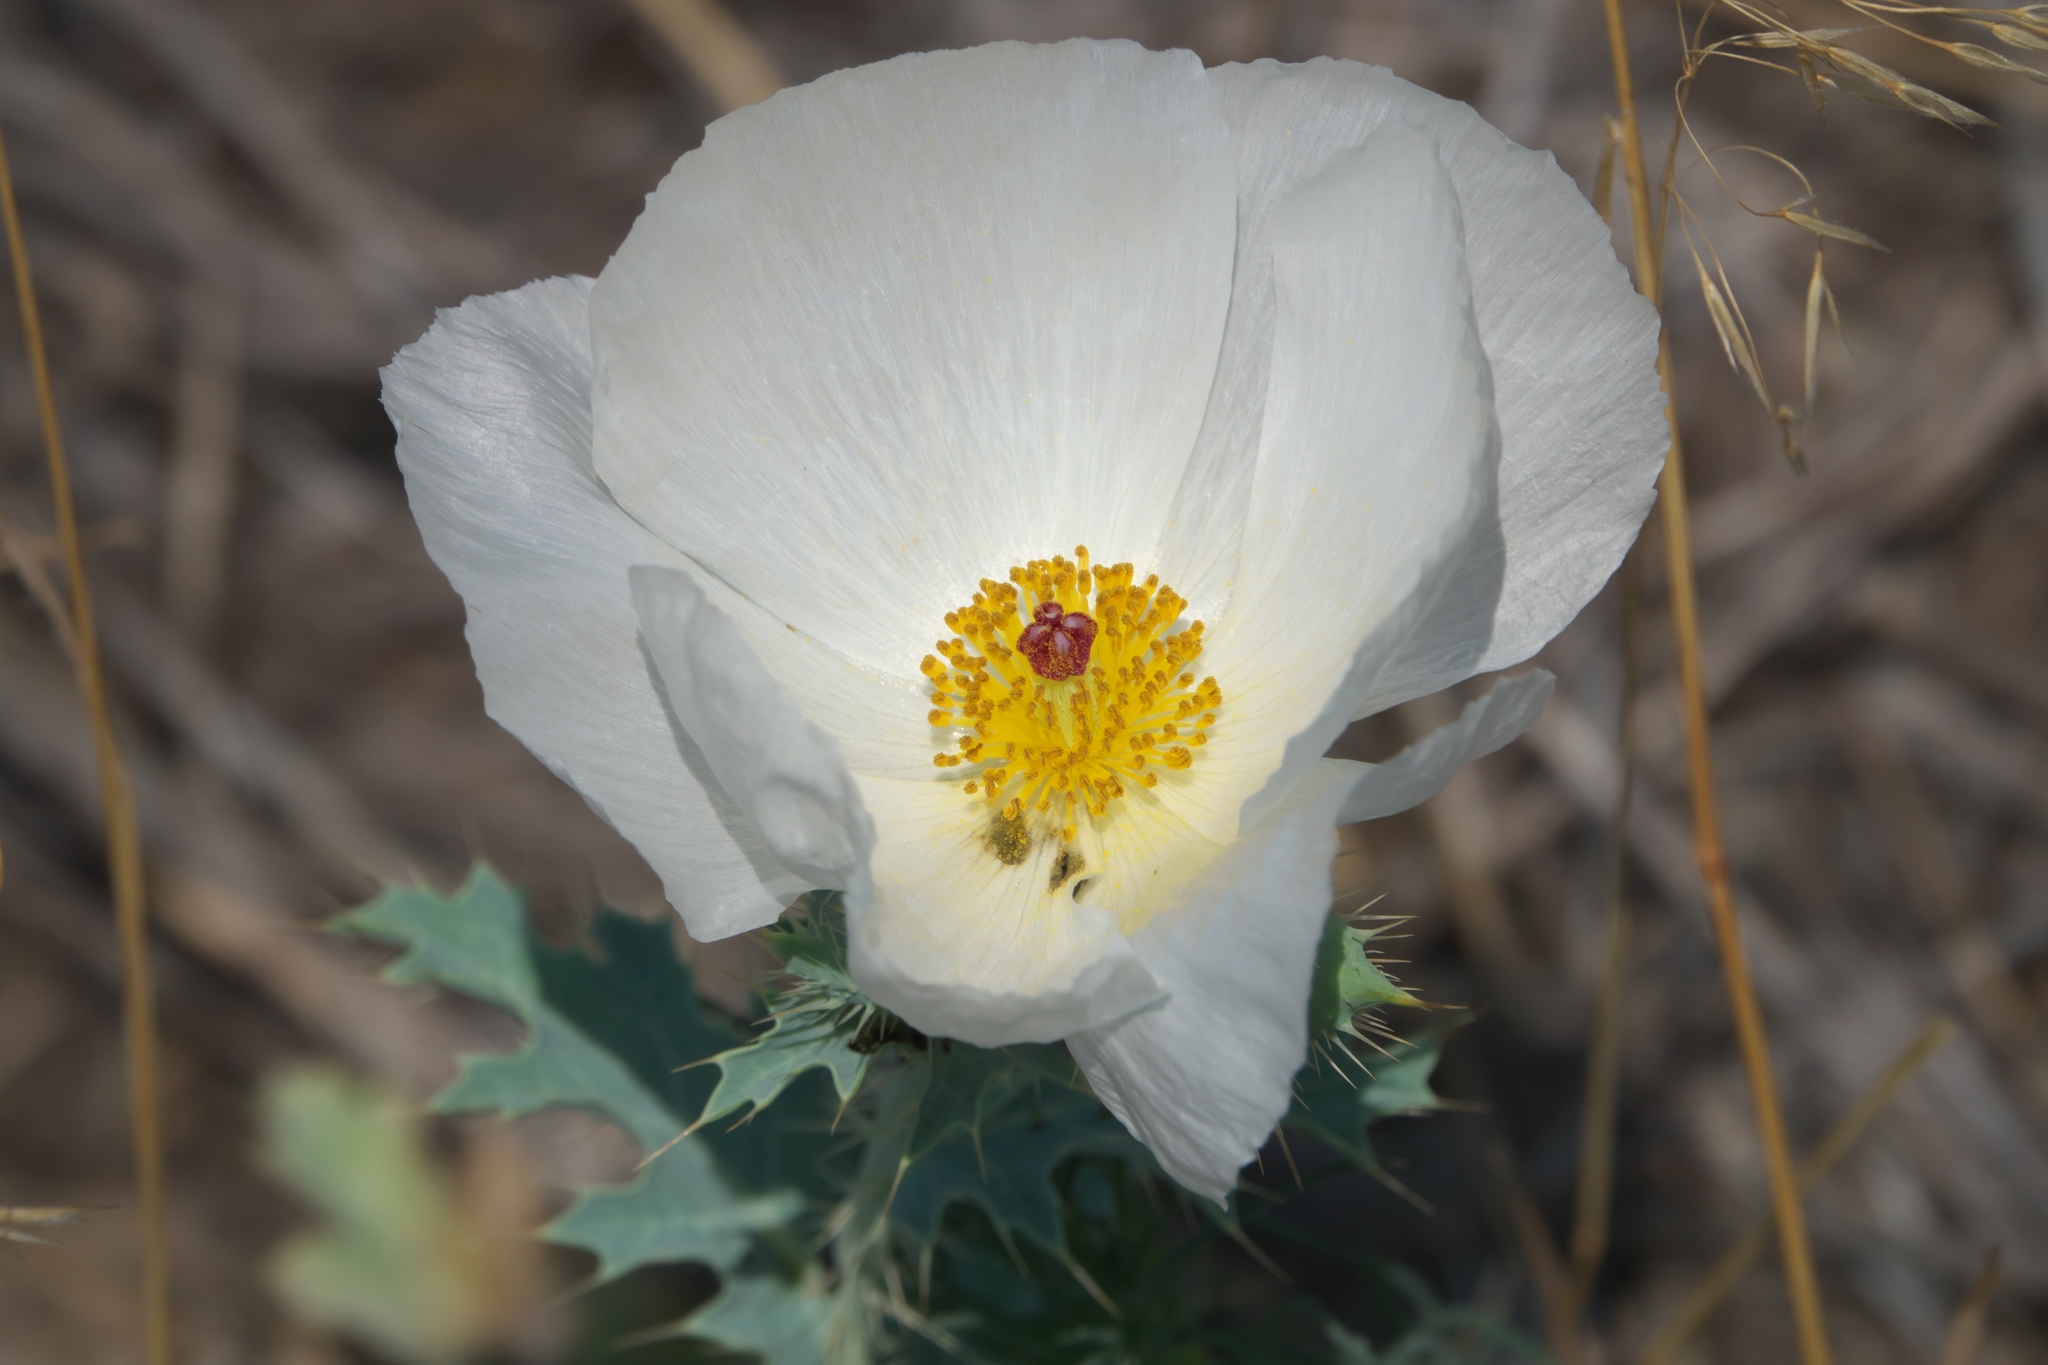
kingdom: Plantae
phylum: Tracheophyta
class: Magnoliopsida
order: Ranunculales
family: Papaveraceae
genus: Argemone
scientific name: Argemone polyanthemos
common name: Plains prickly-poppy
